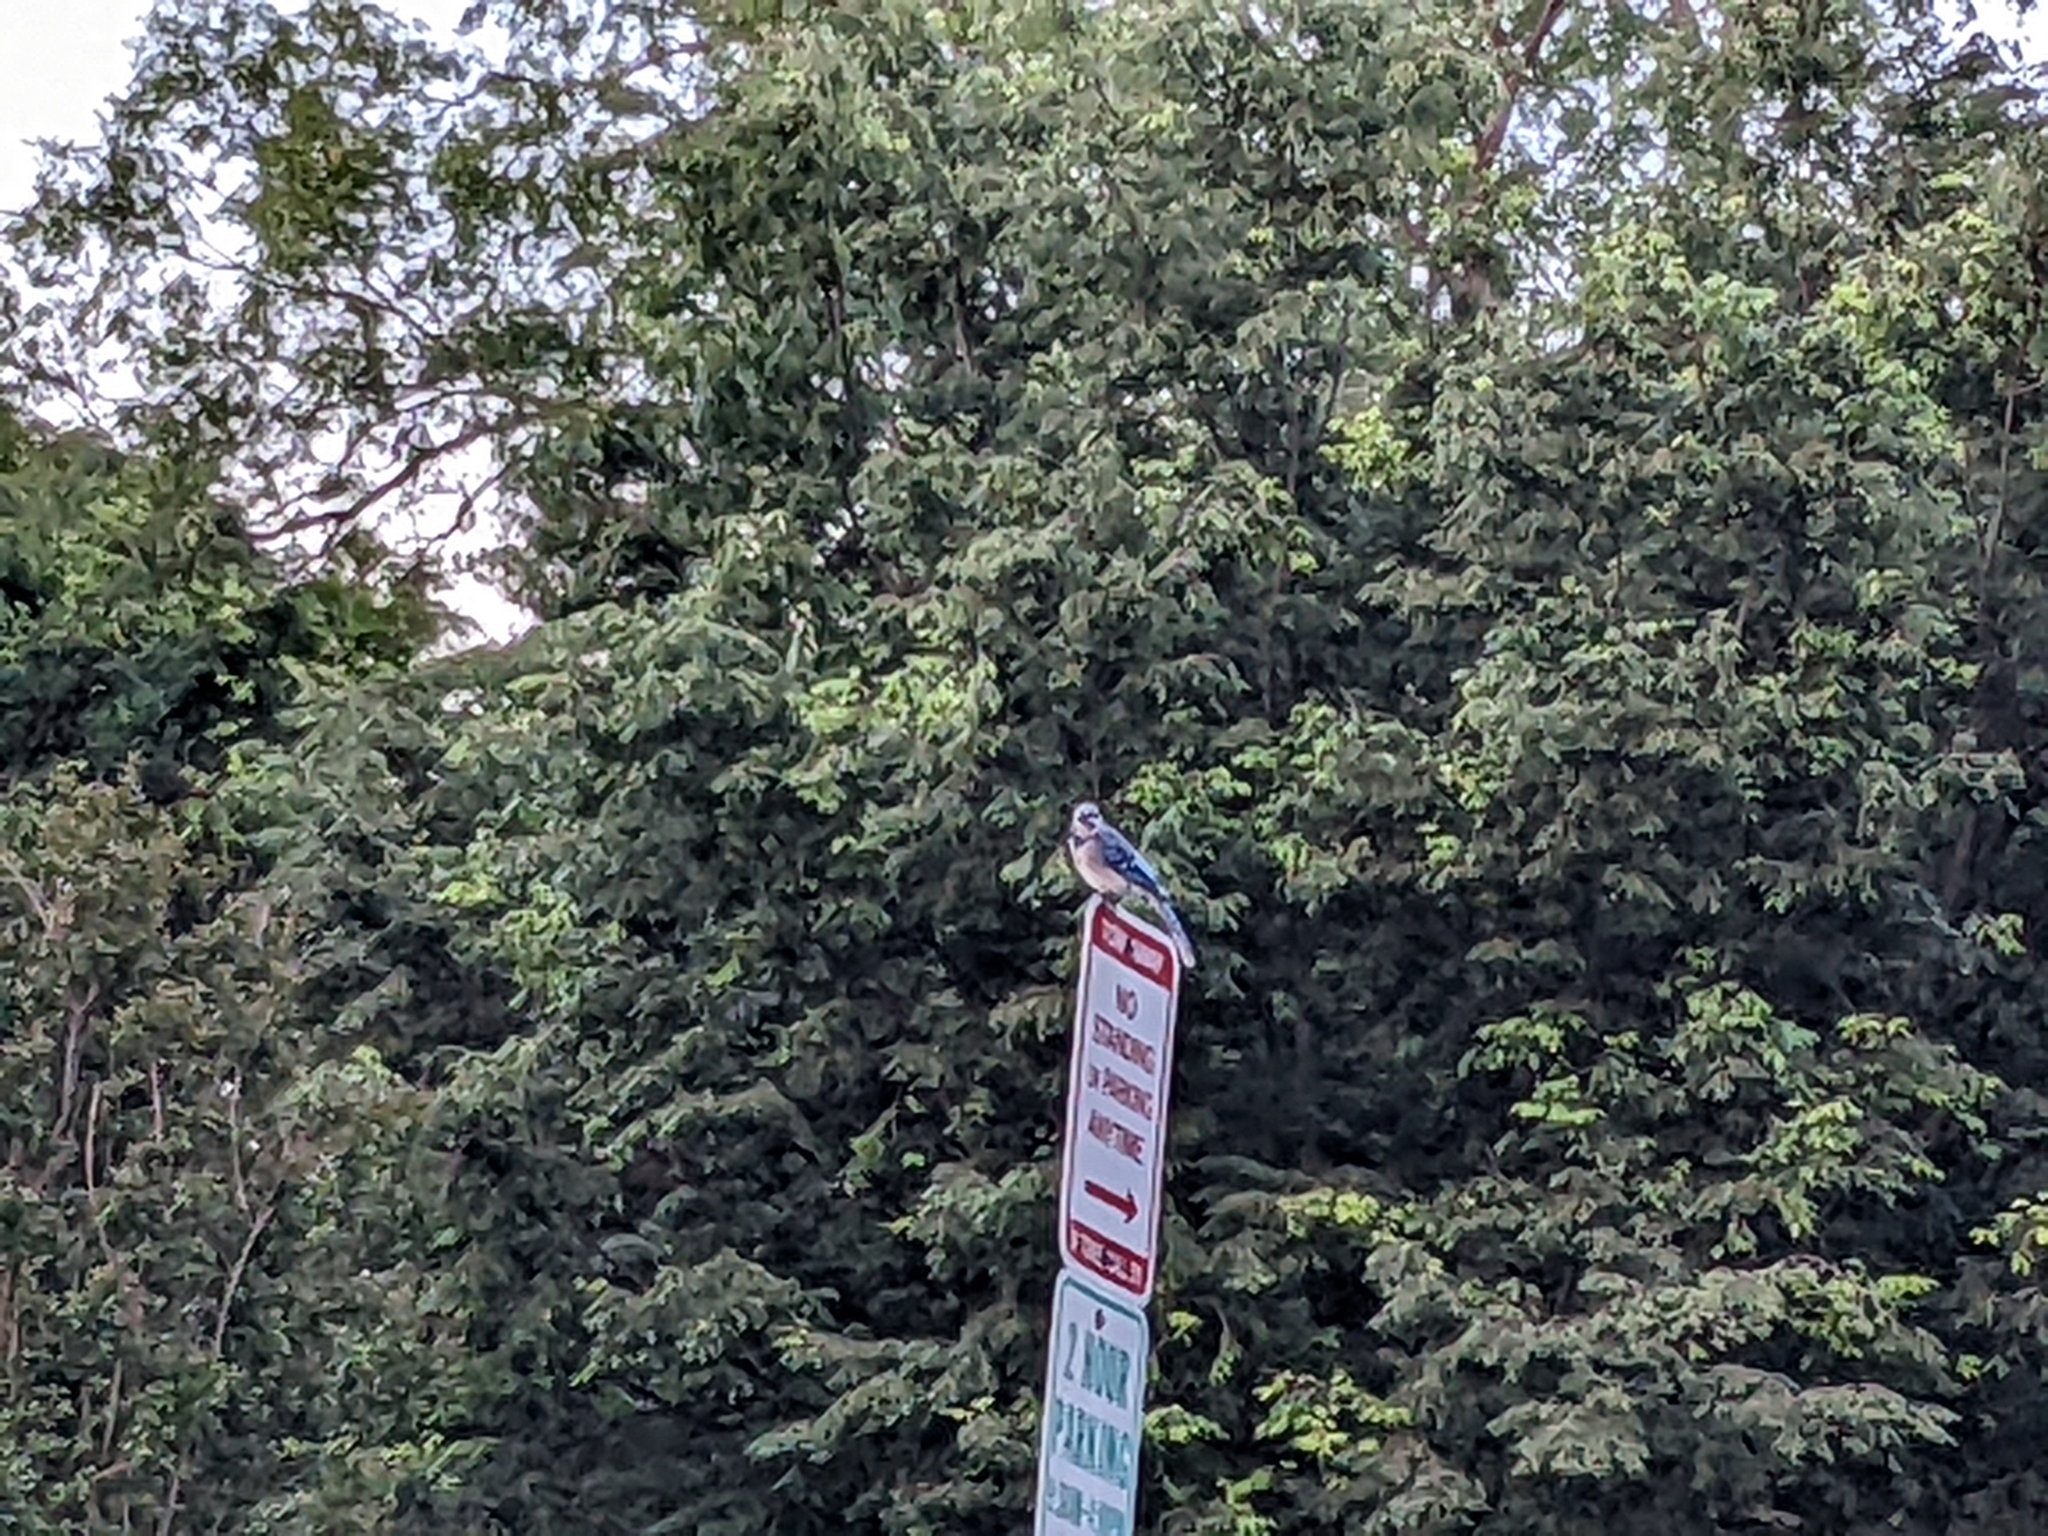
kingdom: Animalia
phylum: Chordata
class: Aves
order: Passeriformes
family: Corvidae
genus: Cyanocitta
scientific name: Cyanocitta cristata
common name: Blue jay
